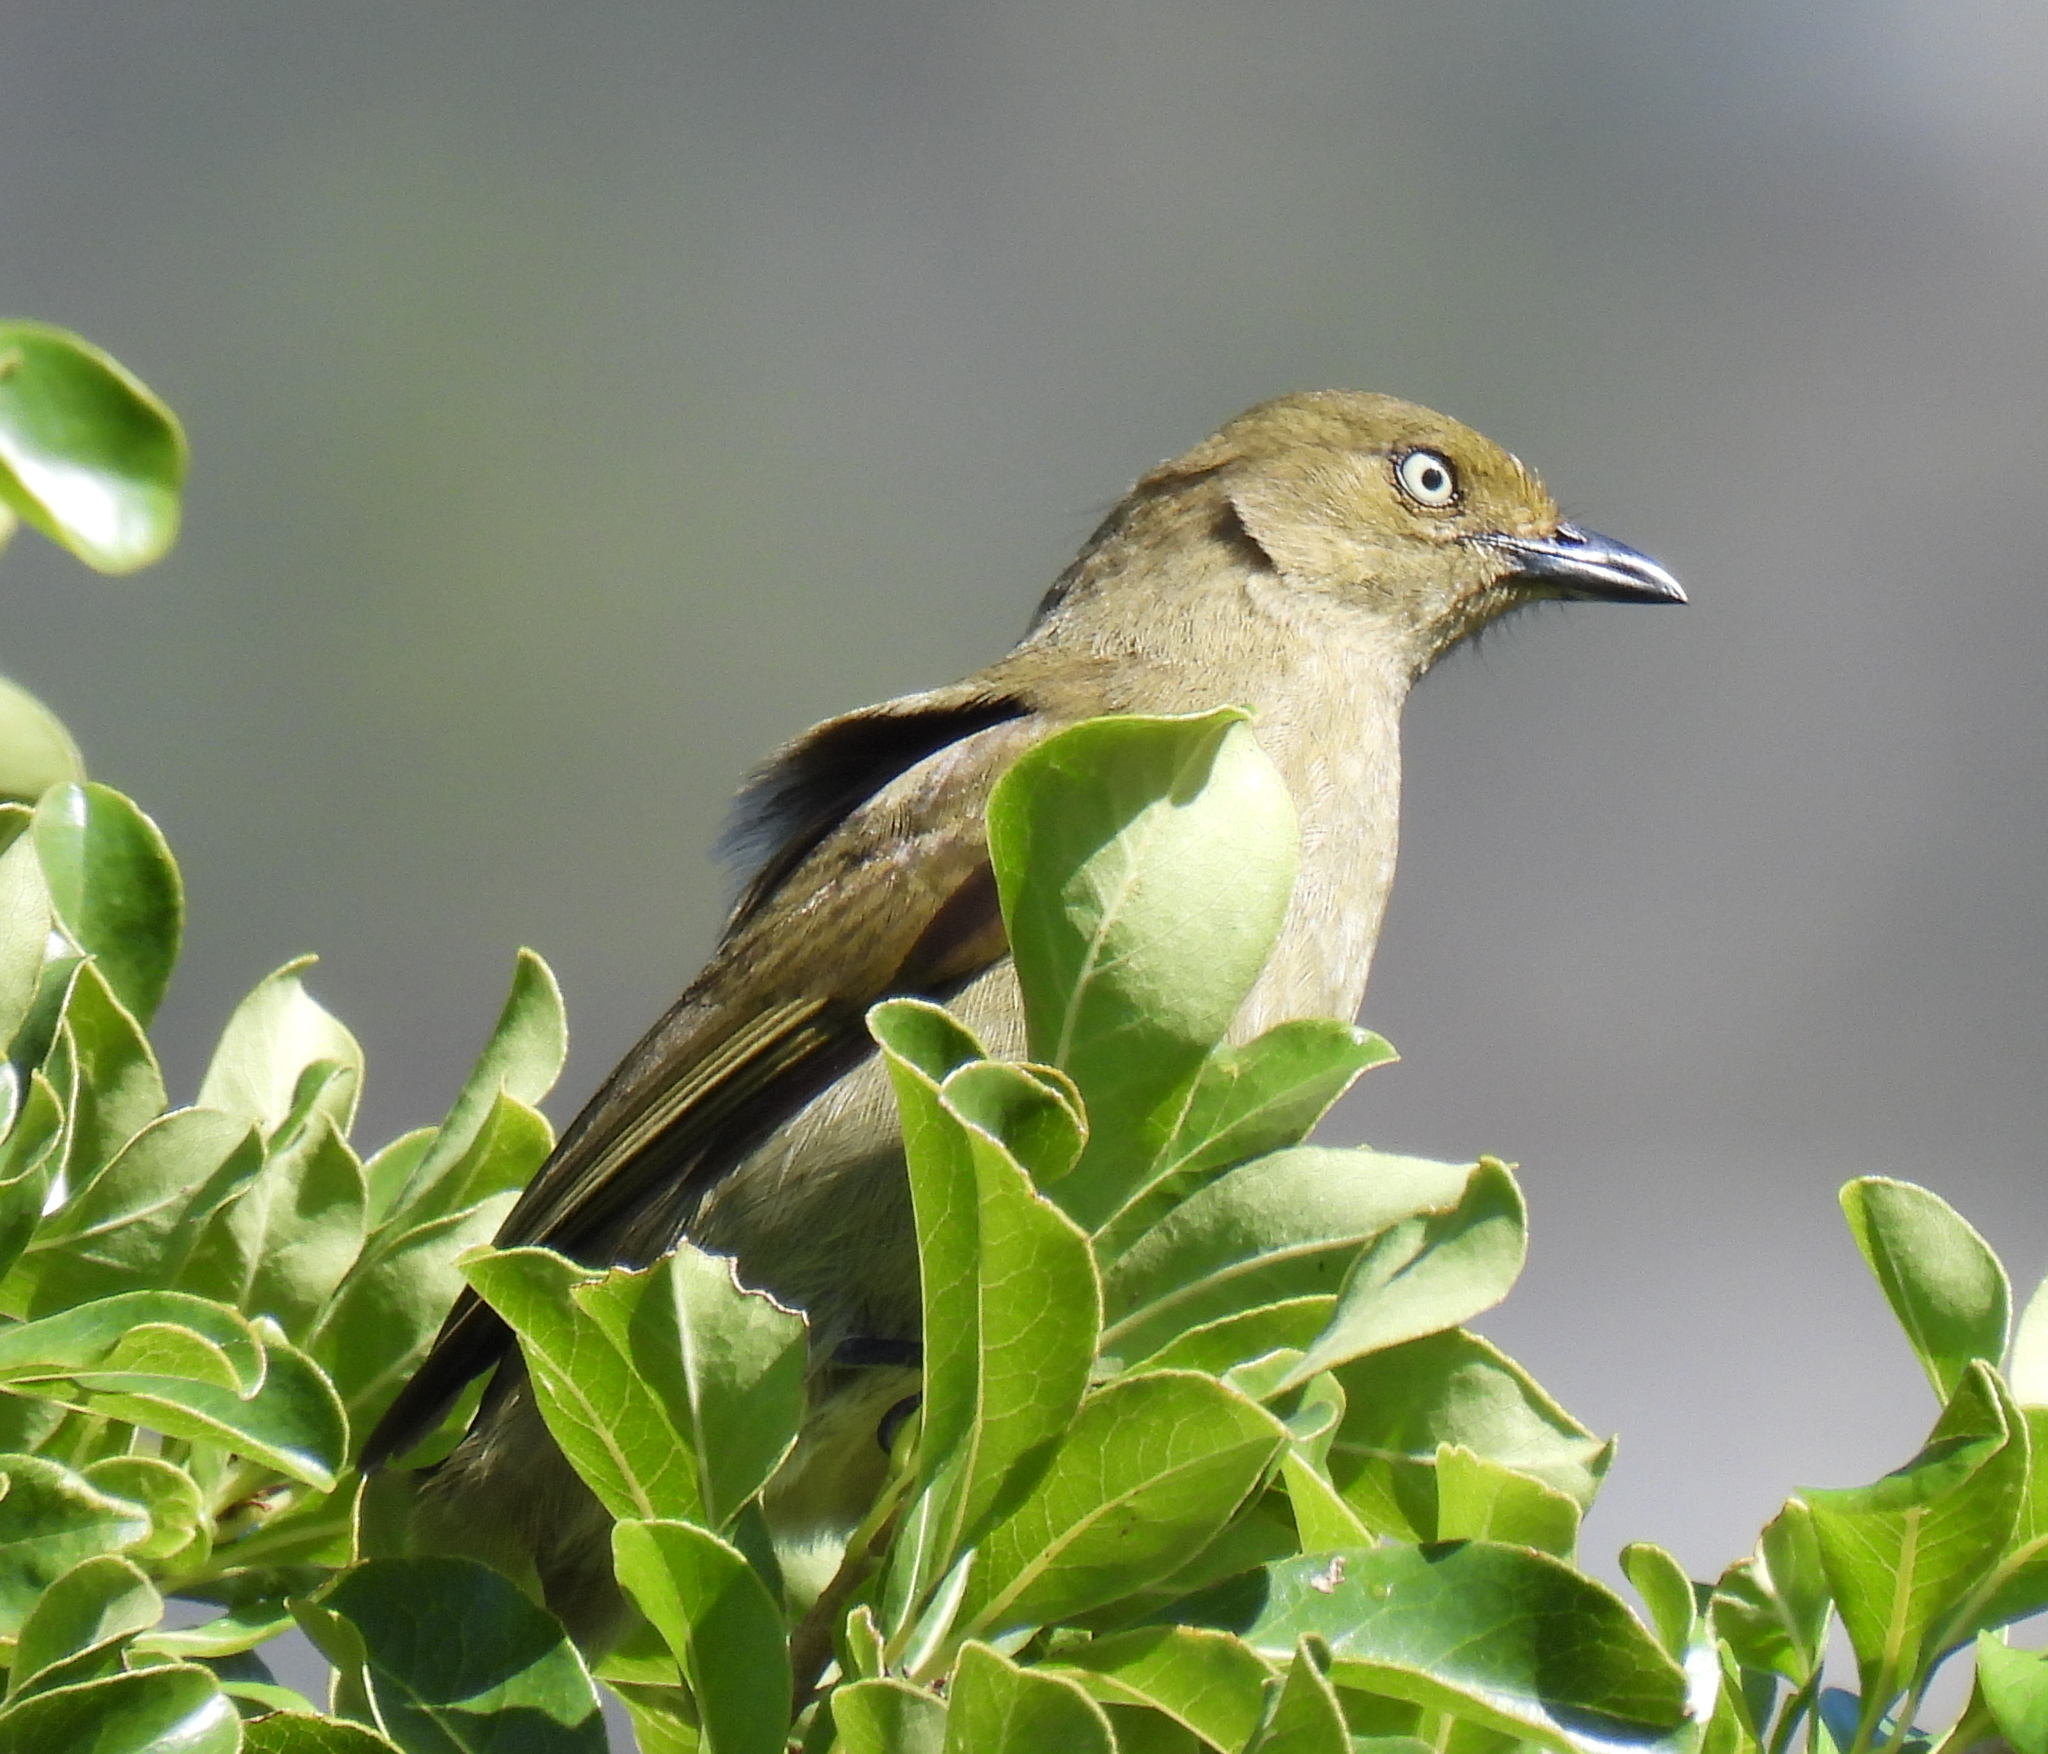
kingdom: Animalia
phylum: Chordata
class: Aves
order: Passeriformes
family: Pycnonotidae
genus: Andropadus
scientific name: Andropadus importunus
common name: Sombre greenbul
